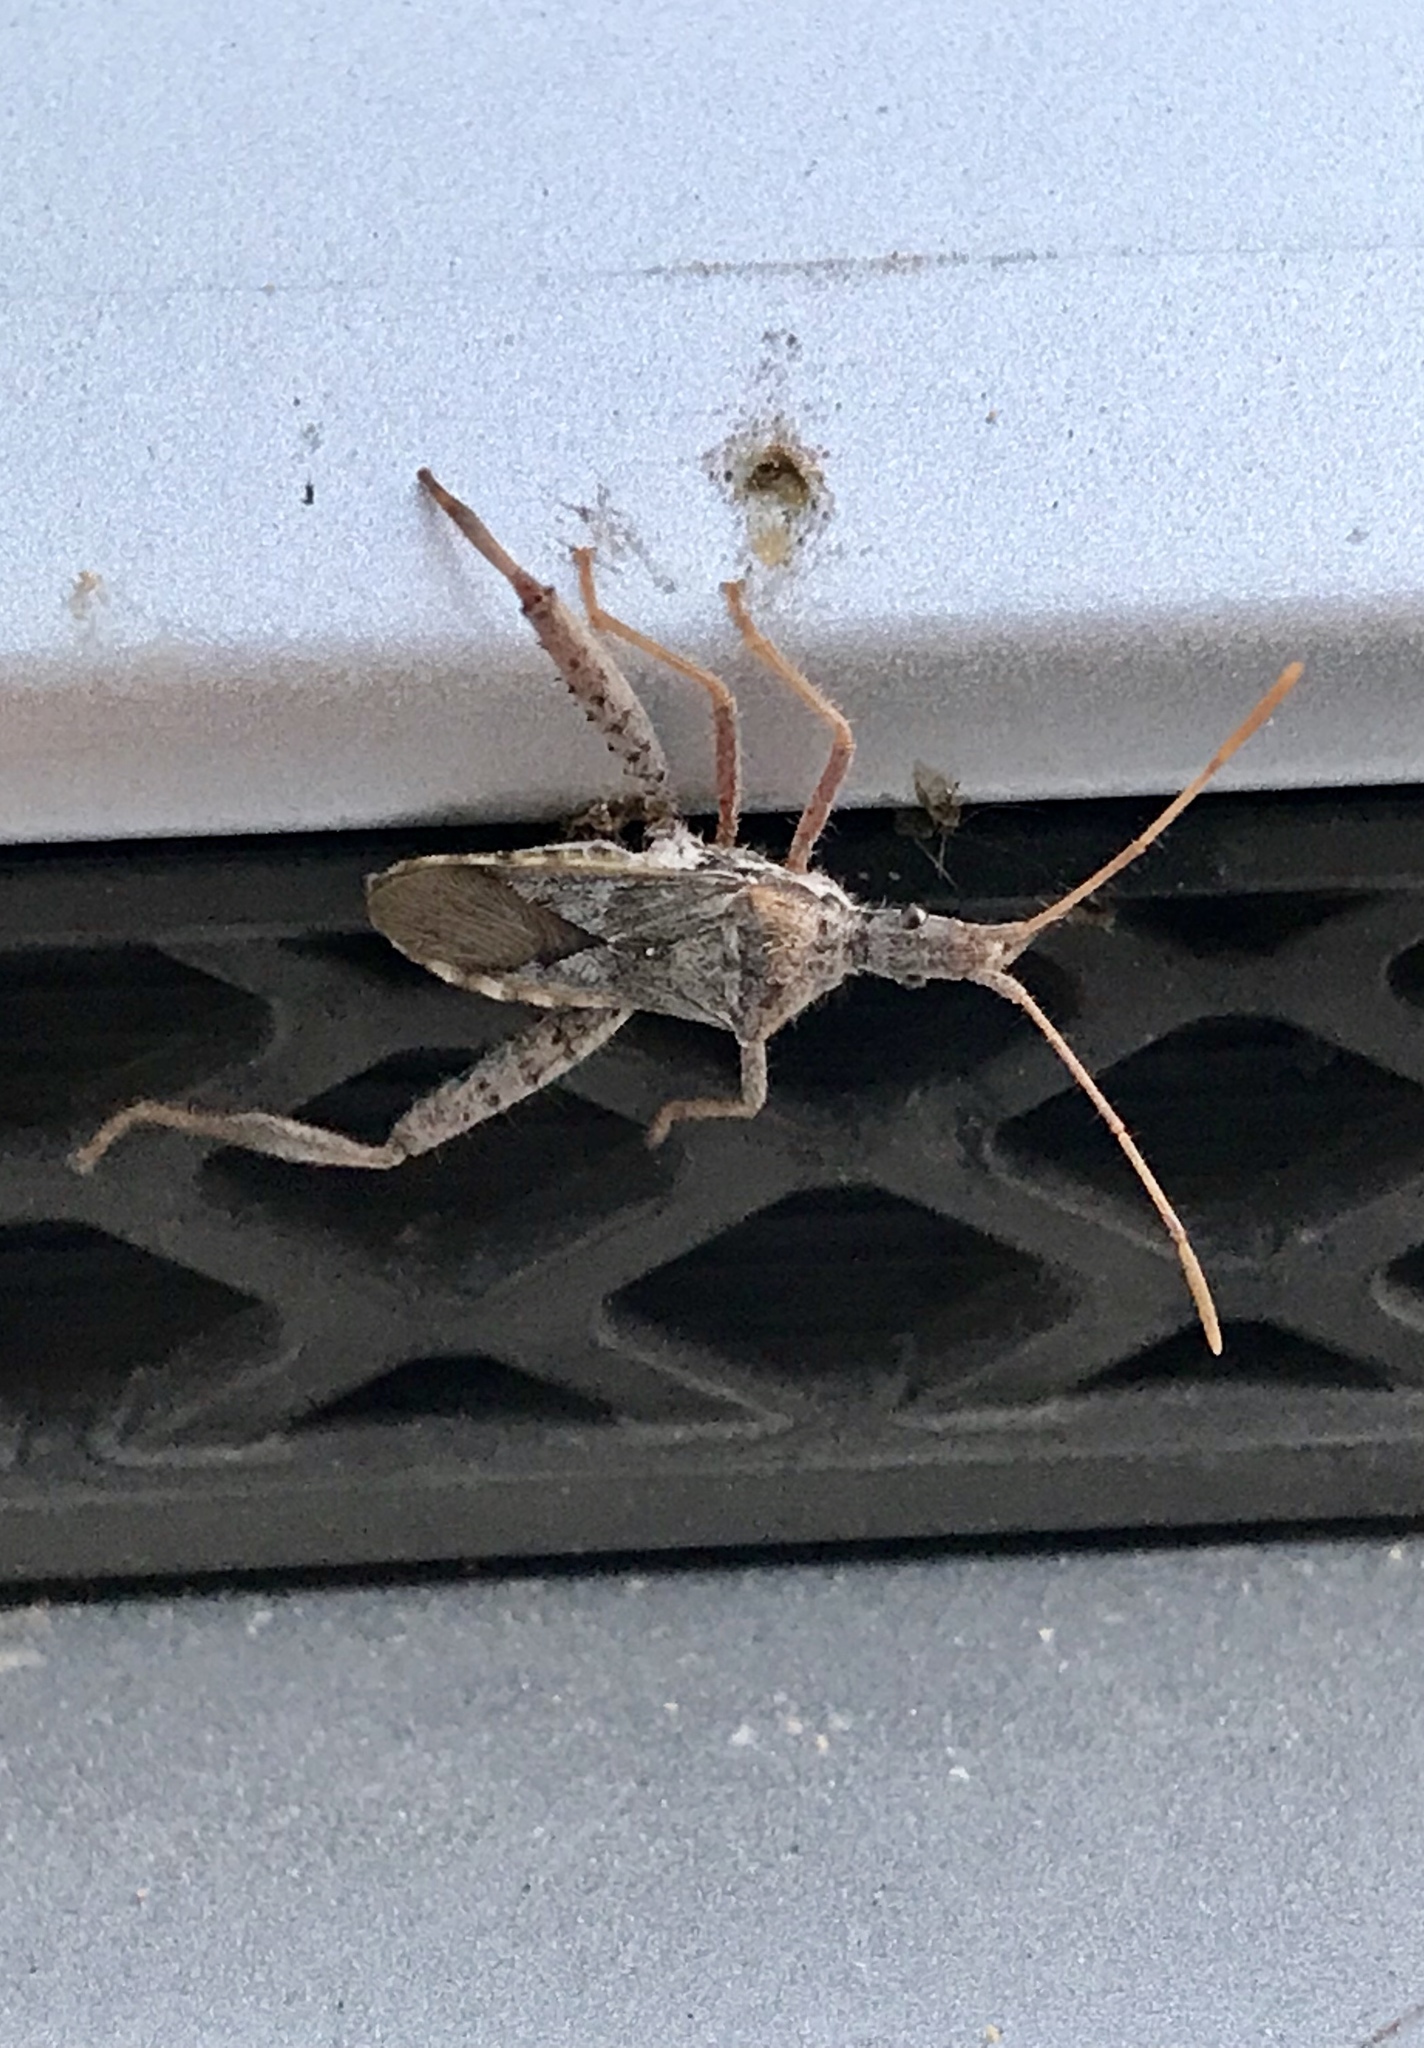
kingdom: Animalia
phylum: Arthropoda
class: Insecta
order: Hemiptera
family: Coreidae
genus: Narnia
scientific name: Narnia femorata
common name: Leaf-footed cactus bug
